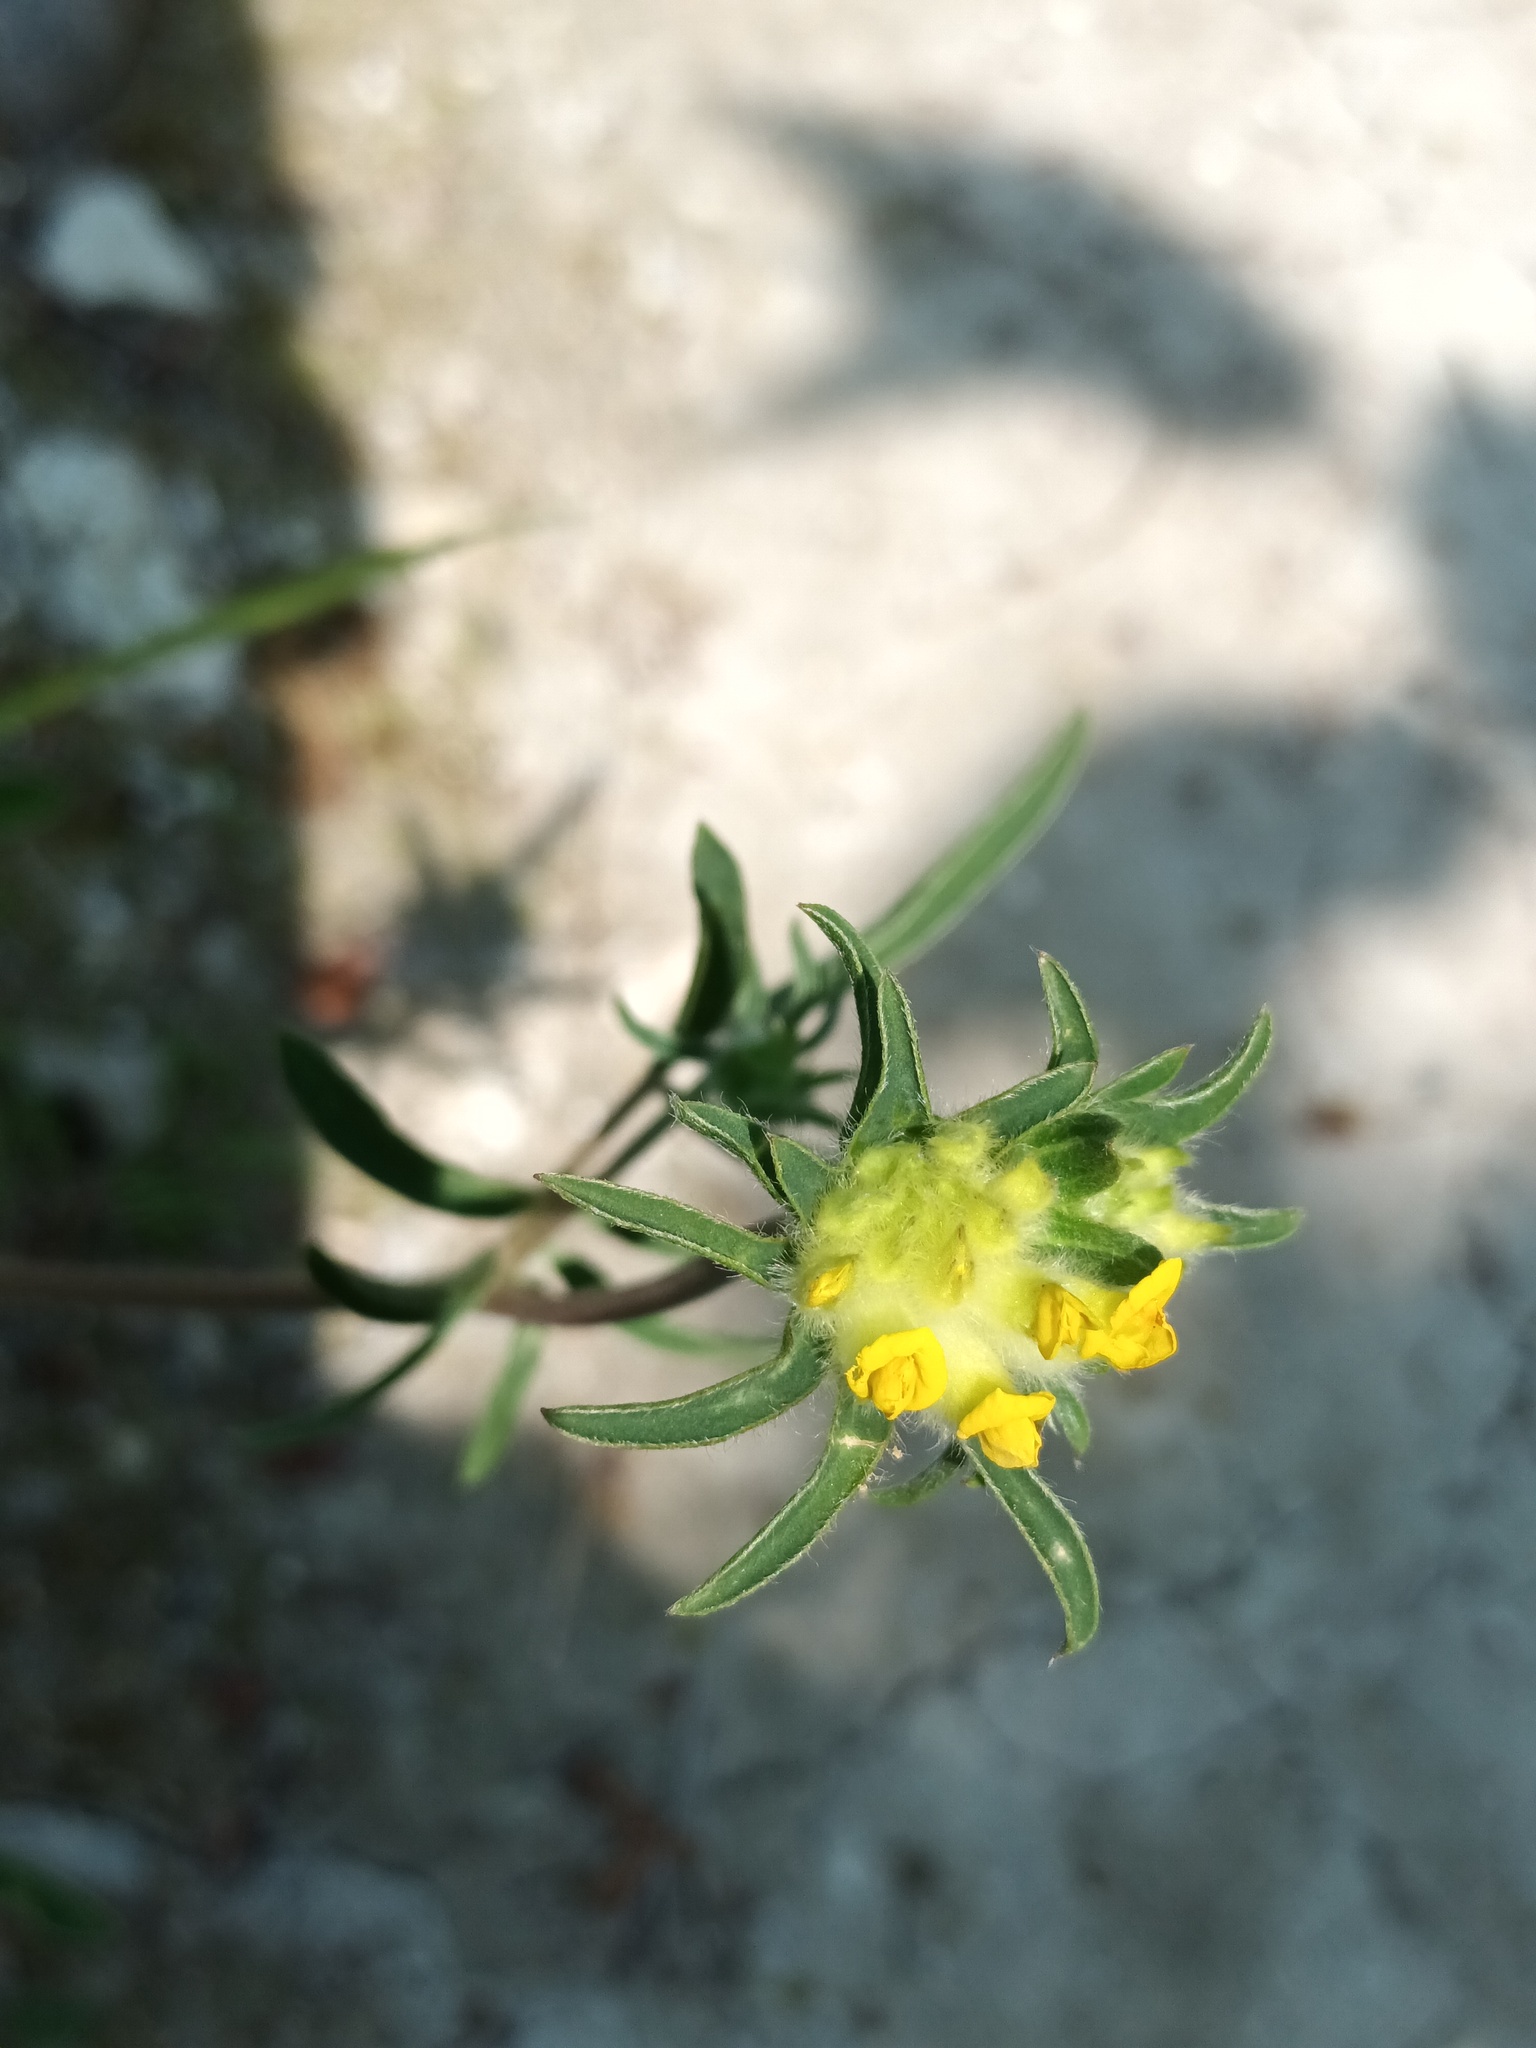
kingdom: Plantae
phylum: Tracheophyta
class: Magnoliopsida
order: Fabales
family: Fabaceae
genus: Anthyllis
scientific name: Anthyllis vulneraria
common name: Kidney vetch
